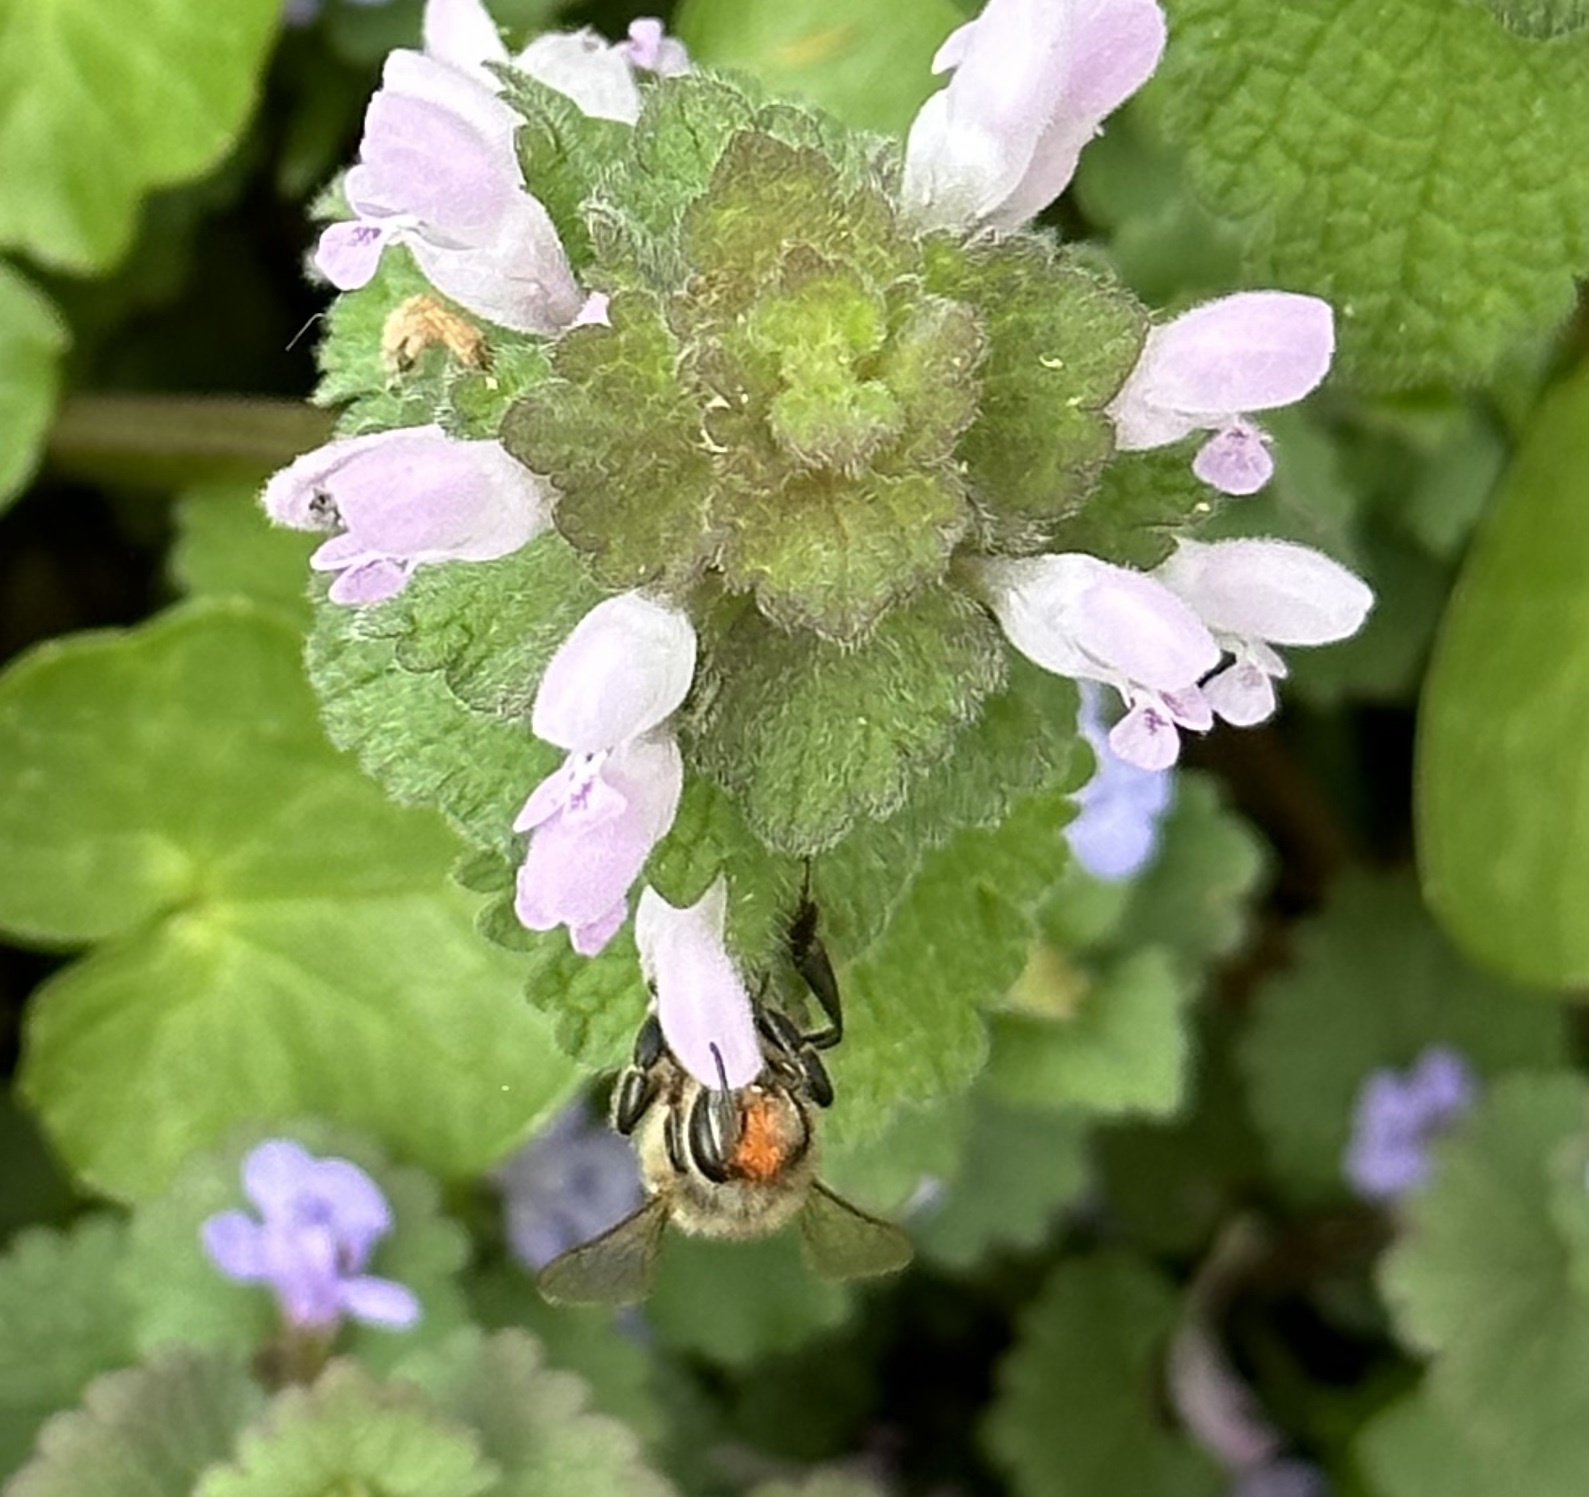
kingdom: Plantae
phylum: Tracheophyta
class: Magnoliopsida
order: Lamiales
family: Lamiaceae
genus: Lamium
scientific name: Lamium purpureum
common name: Red dead-nettle
